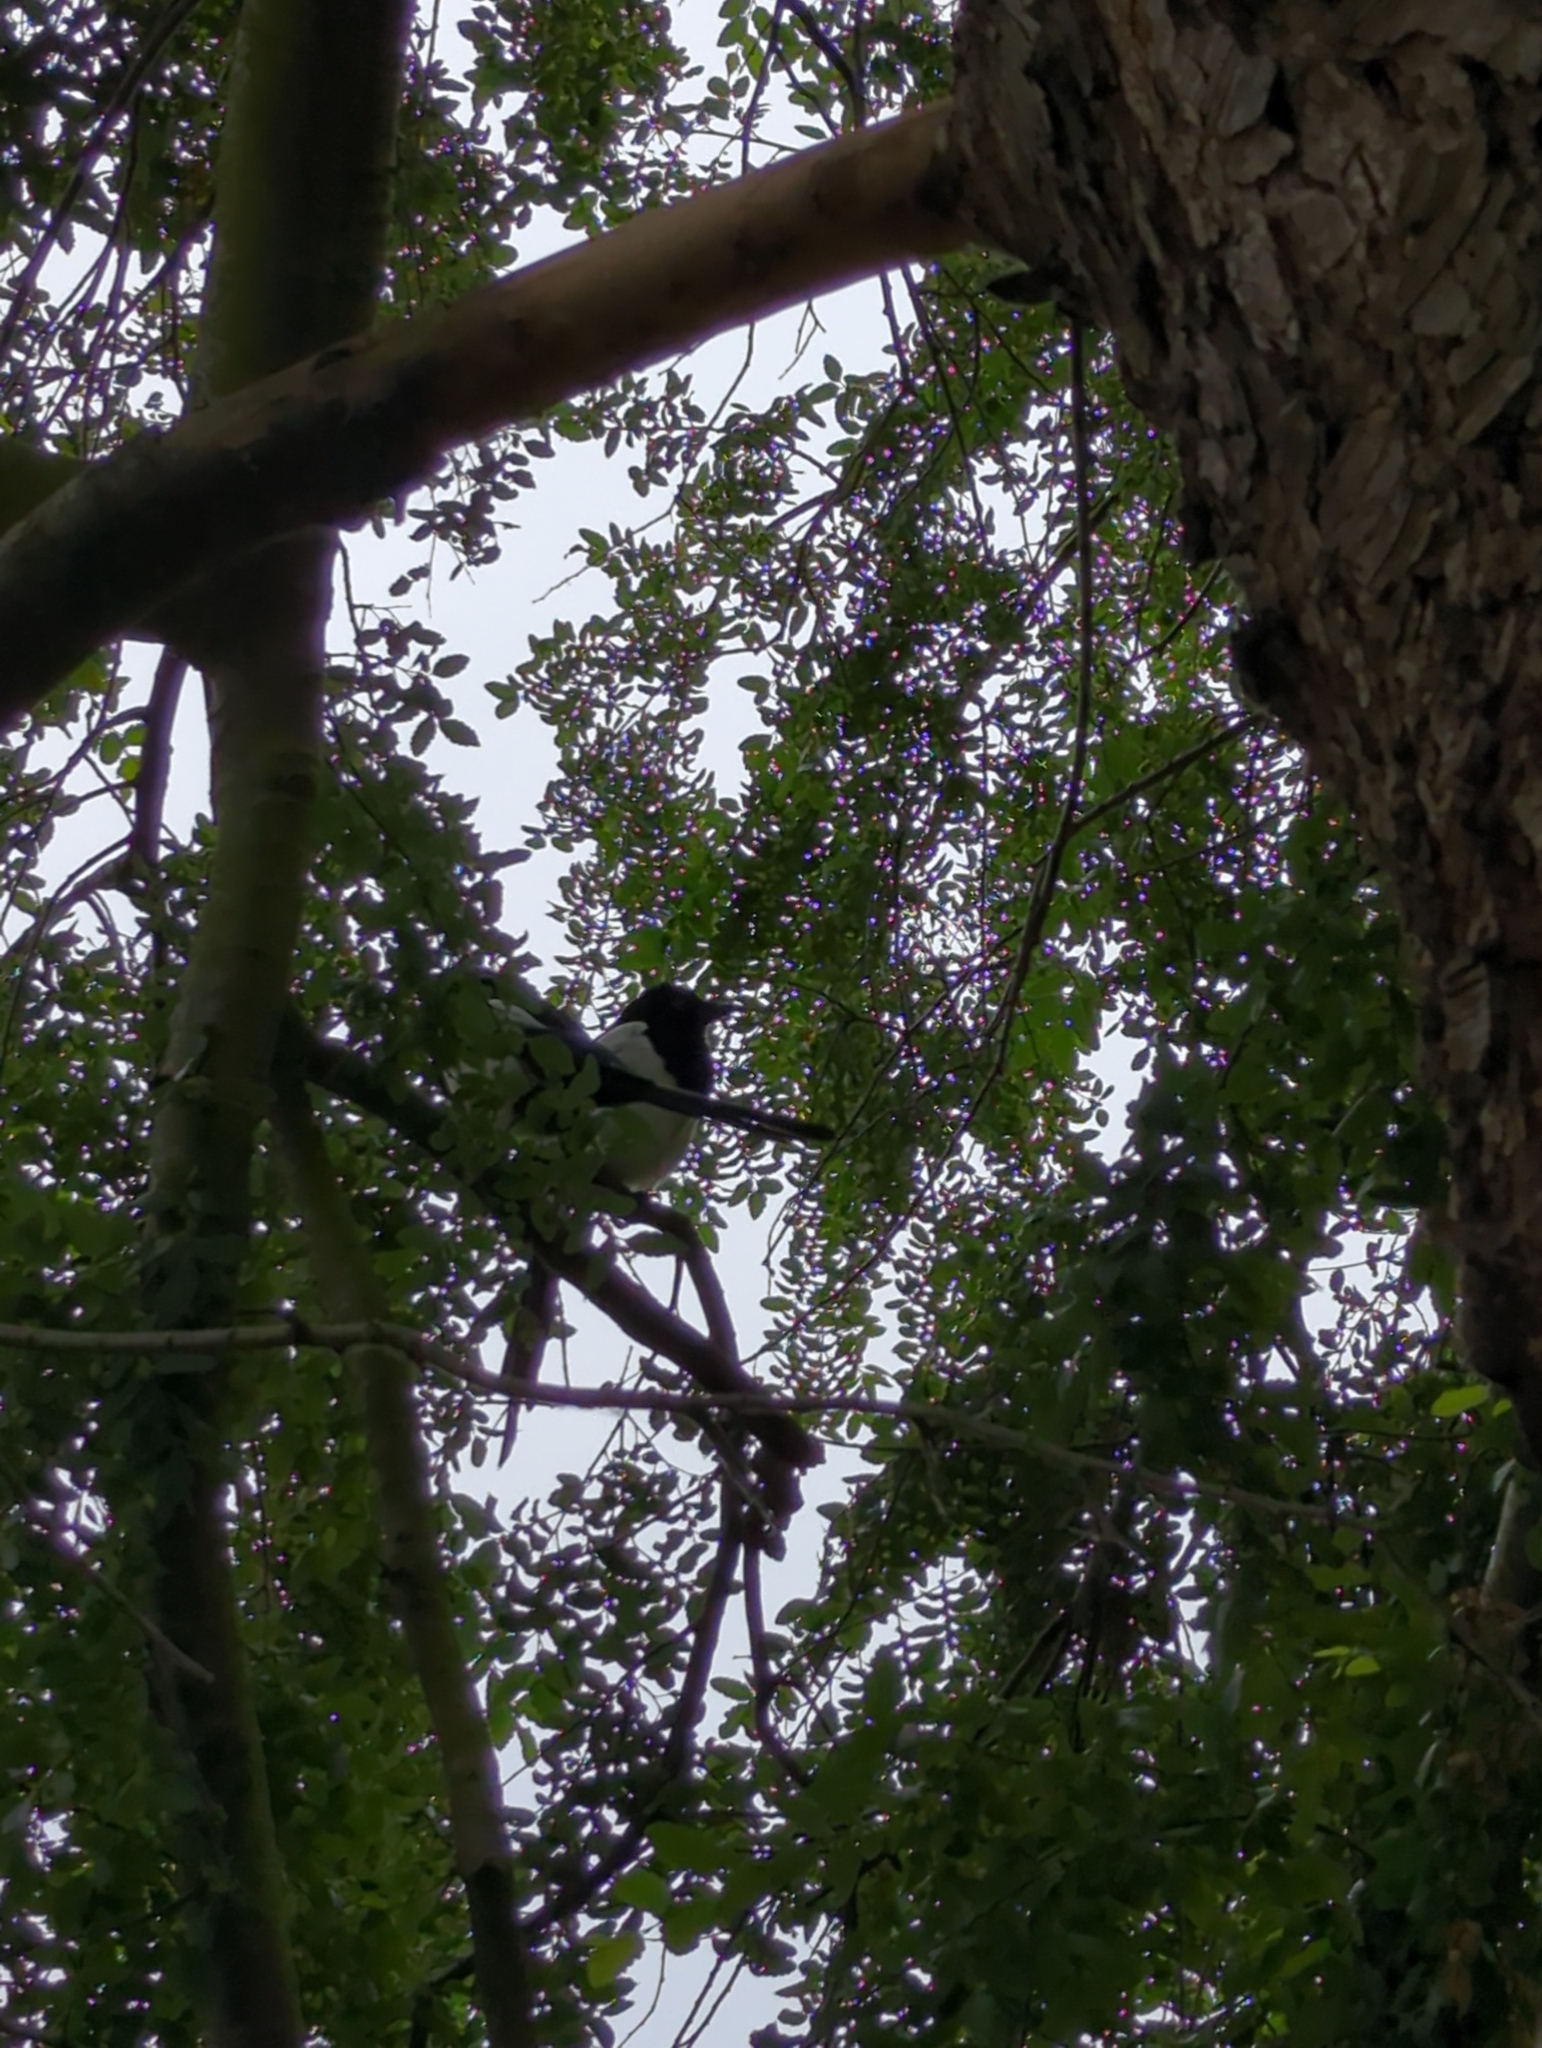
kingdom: Animalia
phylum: Chordata
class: Aves
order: Passeriformes
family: Corvidae
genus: Pica
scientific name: Pica pica
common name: Eurasian magpie
